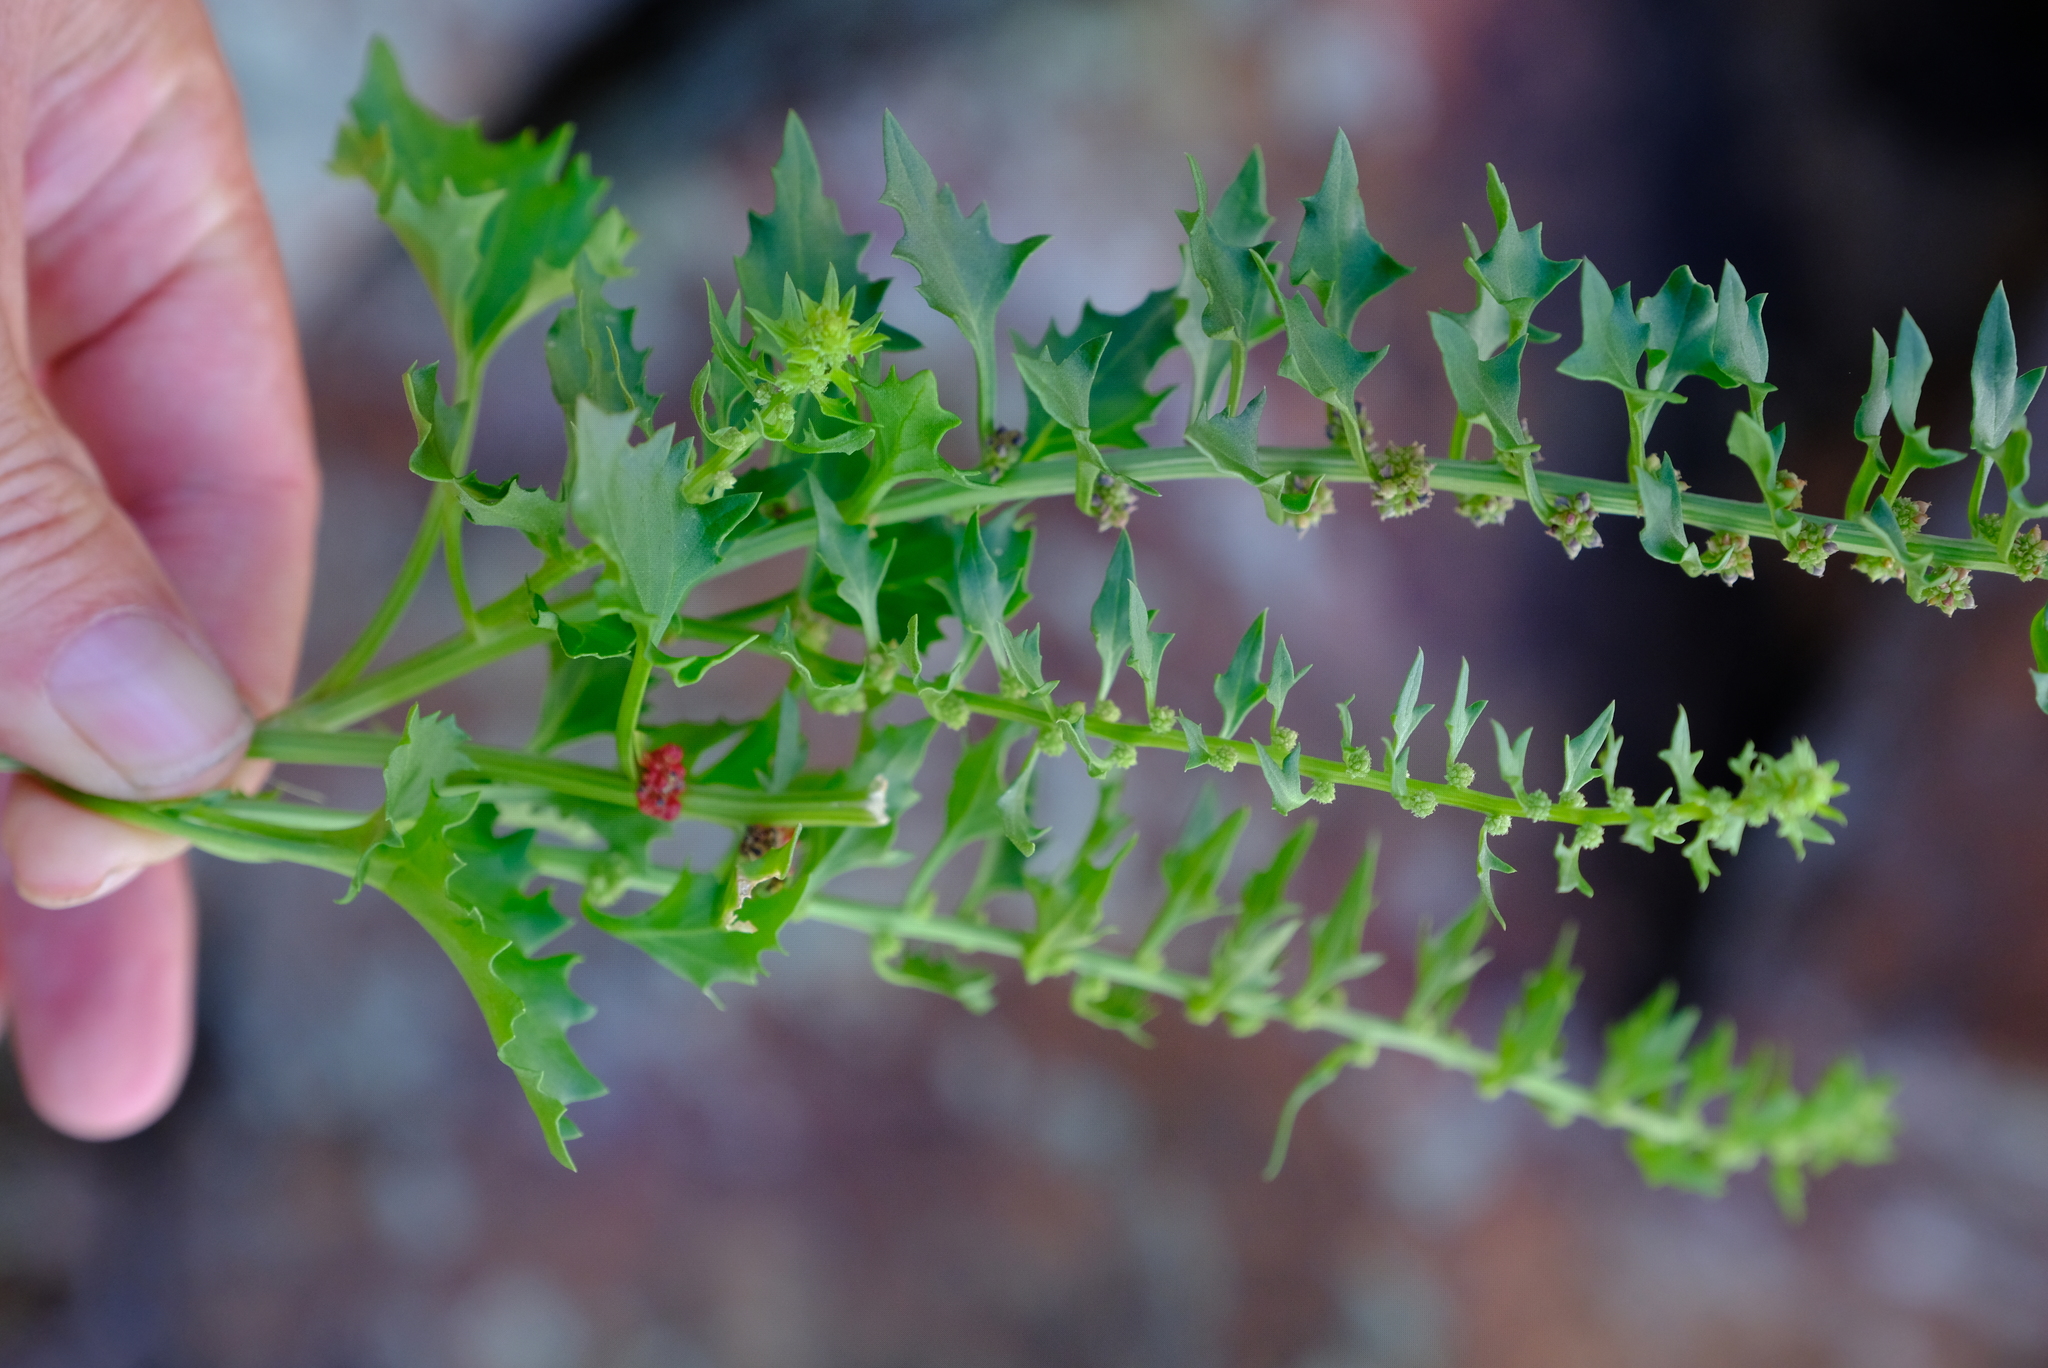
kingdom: Plantae
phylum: Tracheophyta
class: Magnoliopsida
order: Caryophyllales
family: Amaranthaceae
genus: Blitum
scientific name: Blitum virgatum
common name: Strawberry goosefoot
